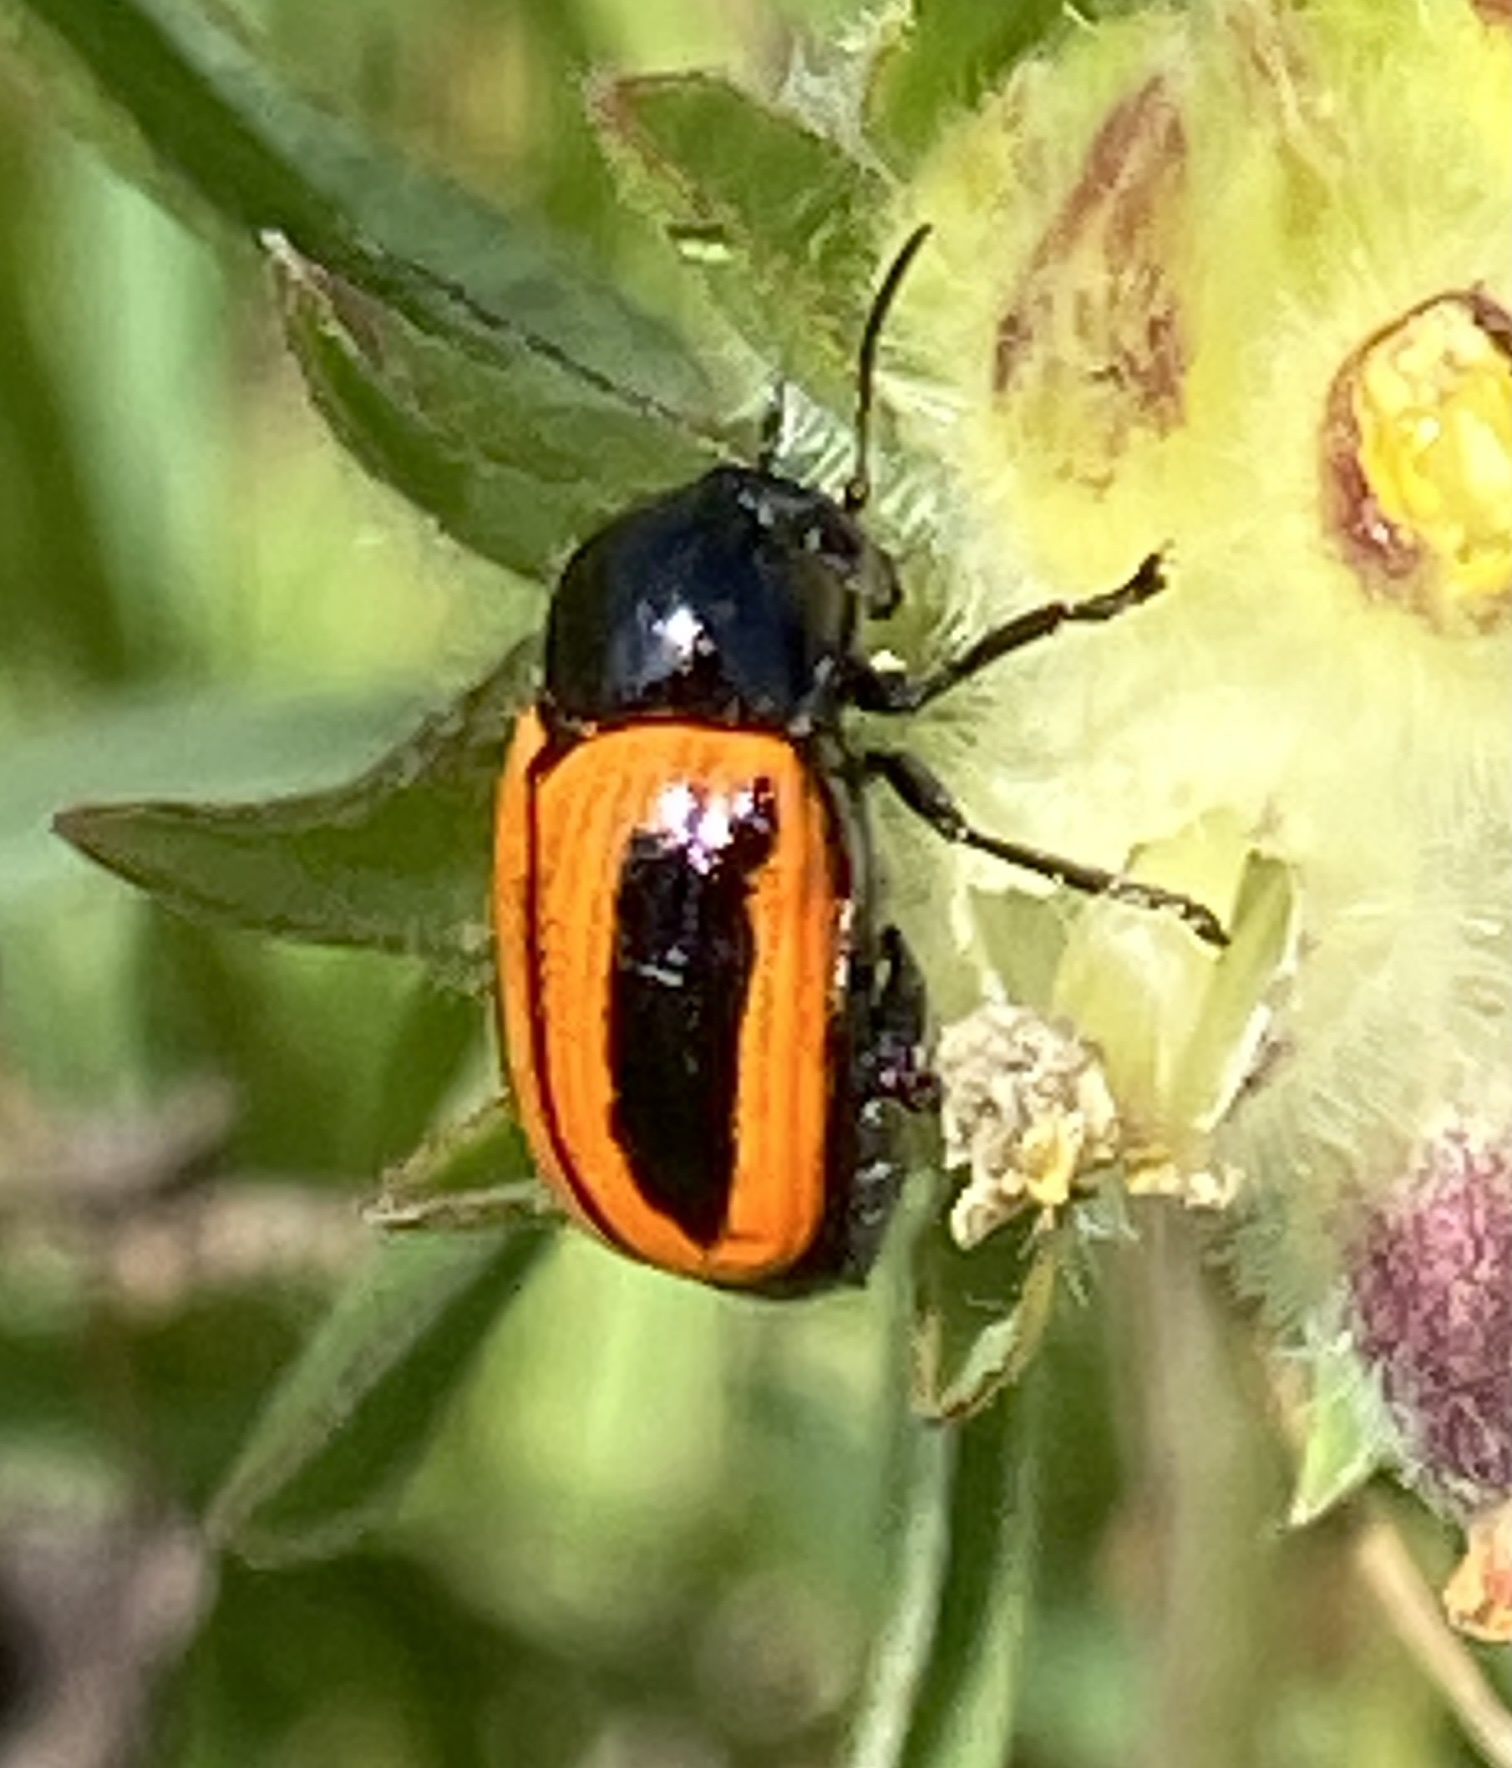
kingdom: Animalia
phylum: Arthropoda
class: Insecta
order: Coleoptera
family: Chrysomelidae
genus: Chiridopsis
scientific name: Chiridopsis bipunctata
